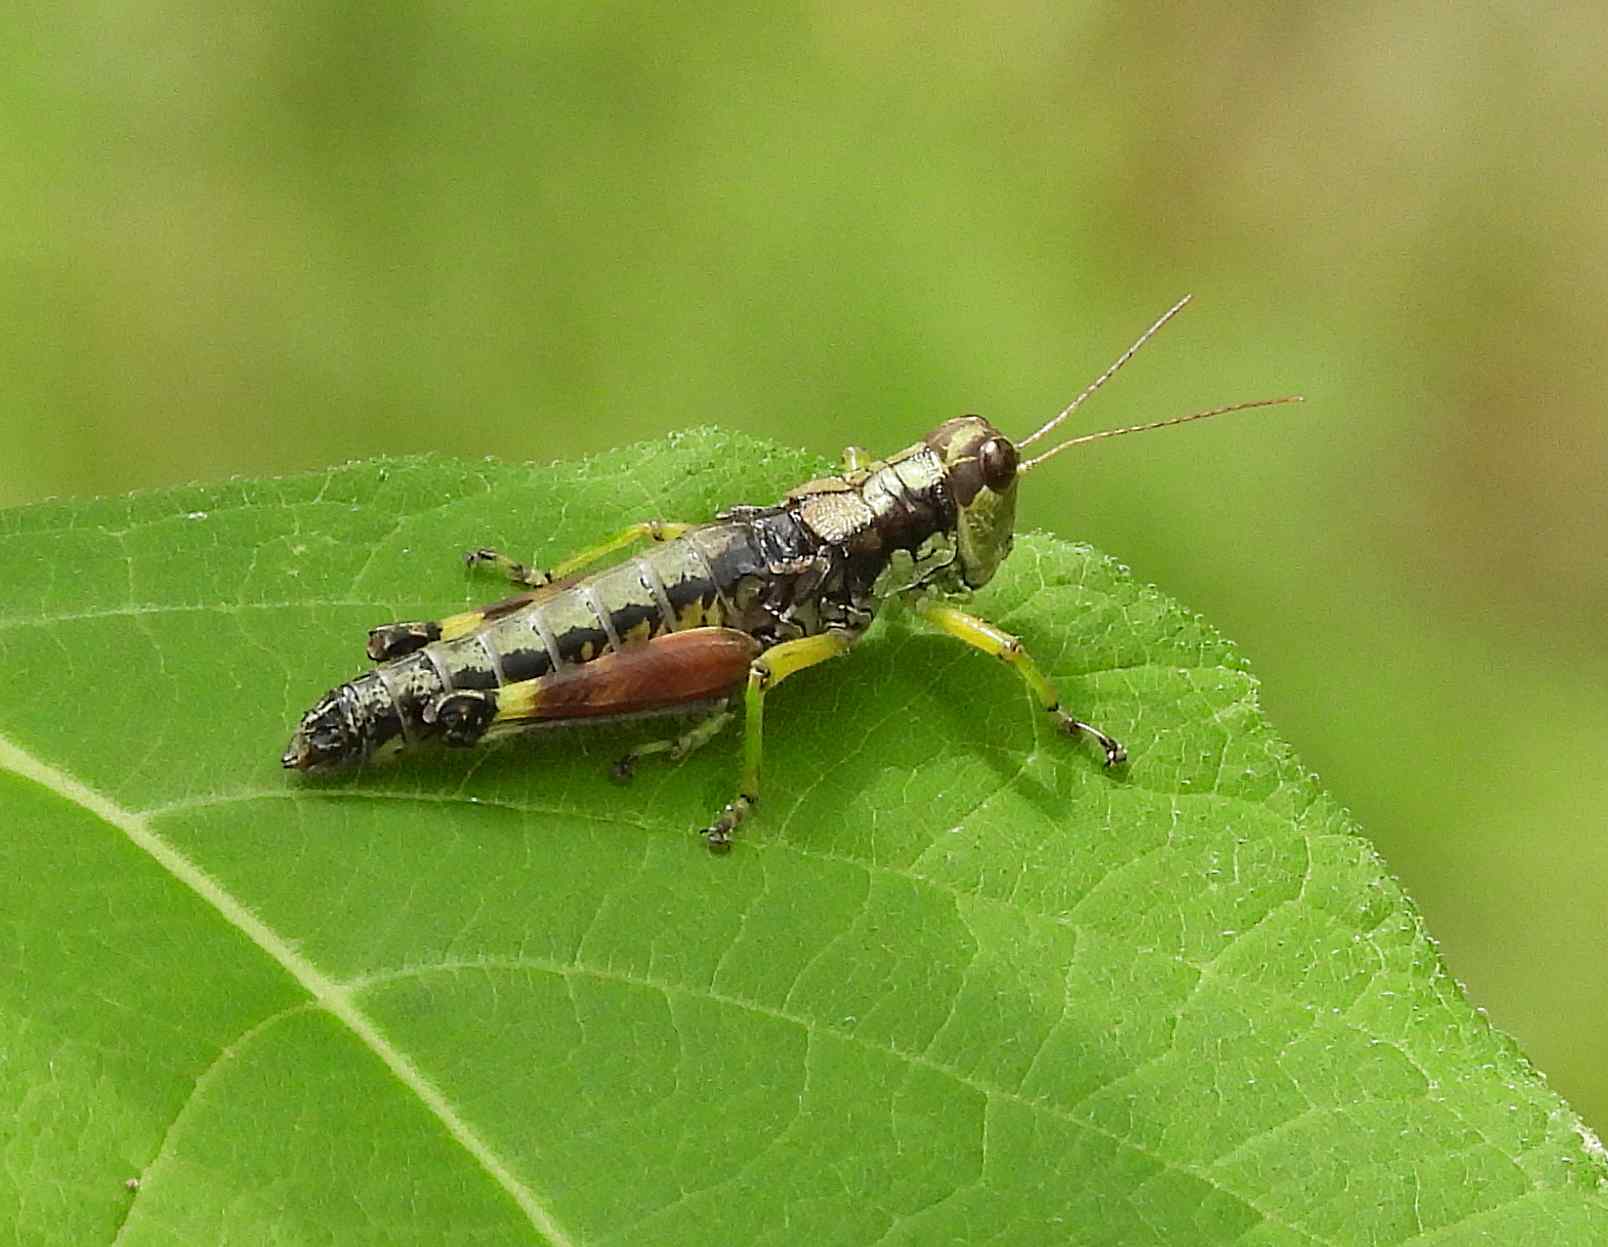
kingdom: Animalia
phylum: Arthropoda
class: Insecta
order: Orthoptera
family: Acrididae
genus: Dendrotettix
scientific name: Dendrotettix quercus
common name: Post oak grasshopper
